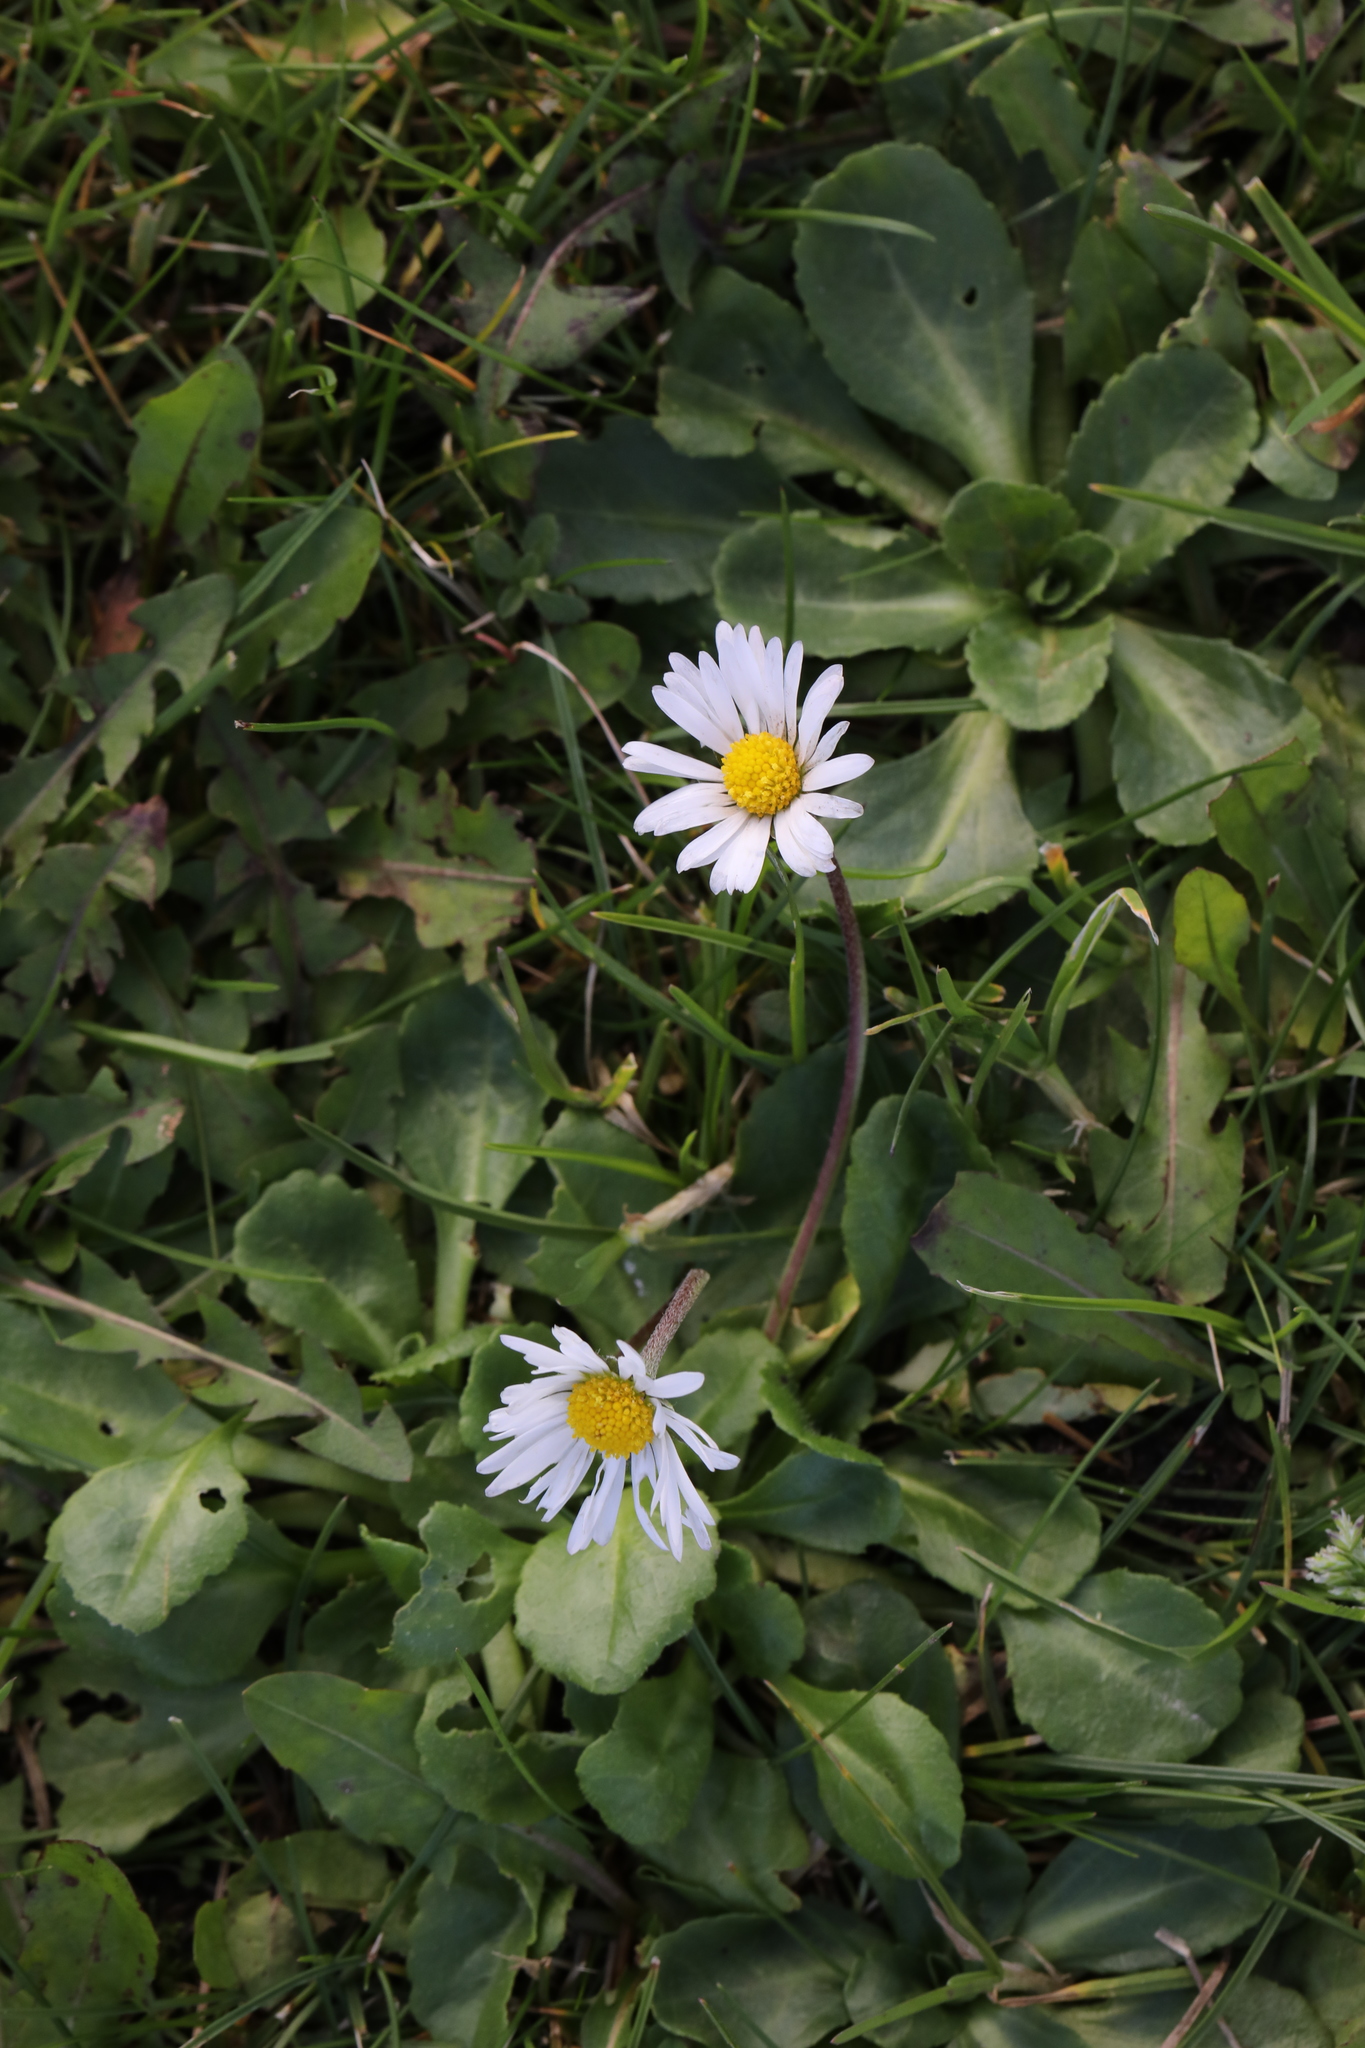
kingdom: Plantae
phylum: Tracheophyta
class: Magnoliopsida
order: Asterales
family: Asteraceae
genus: Bellis
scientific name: Bellis perennis
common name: Lawndaisy
